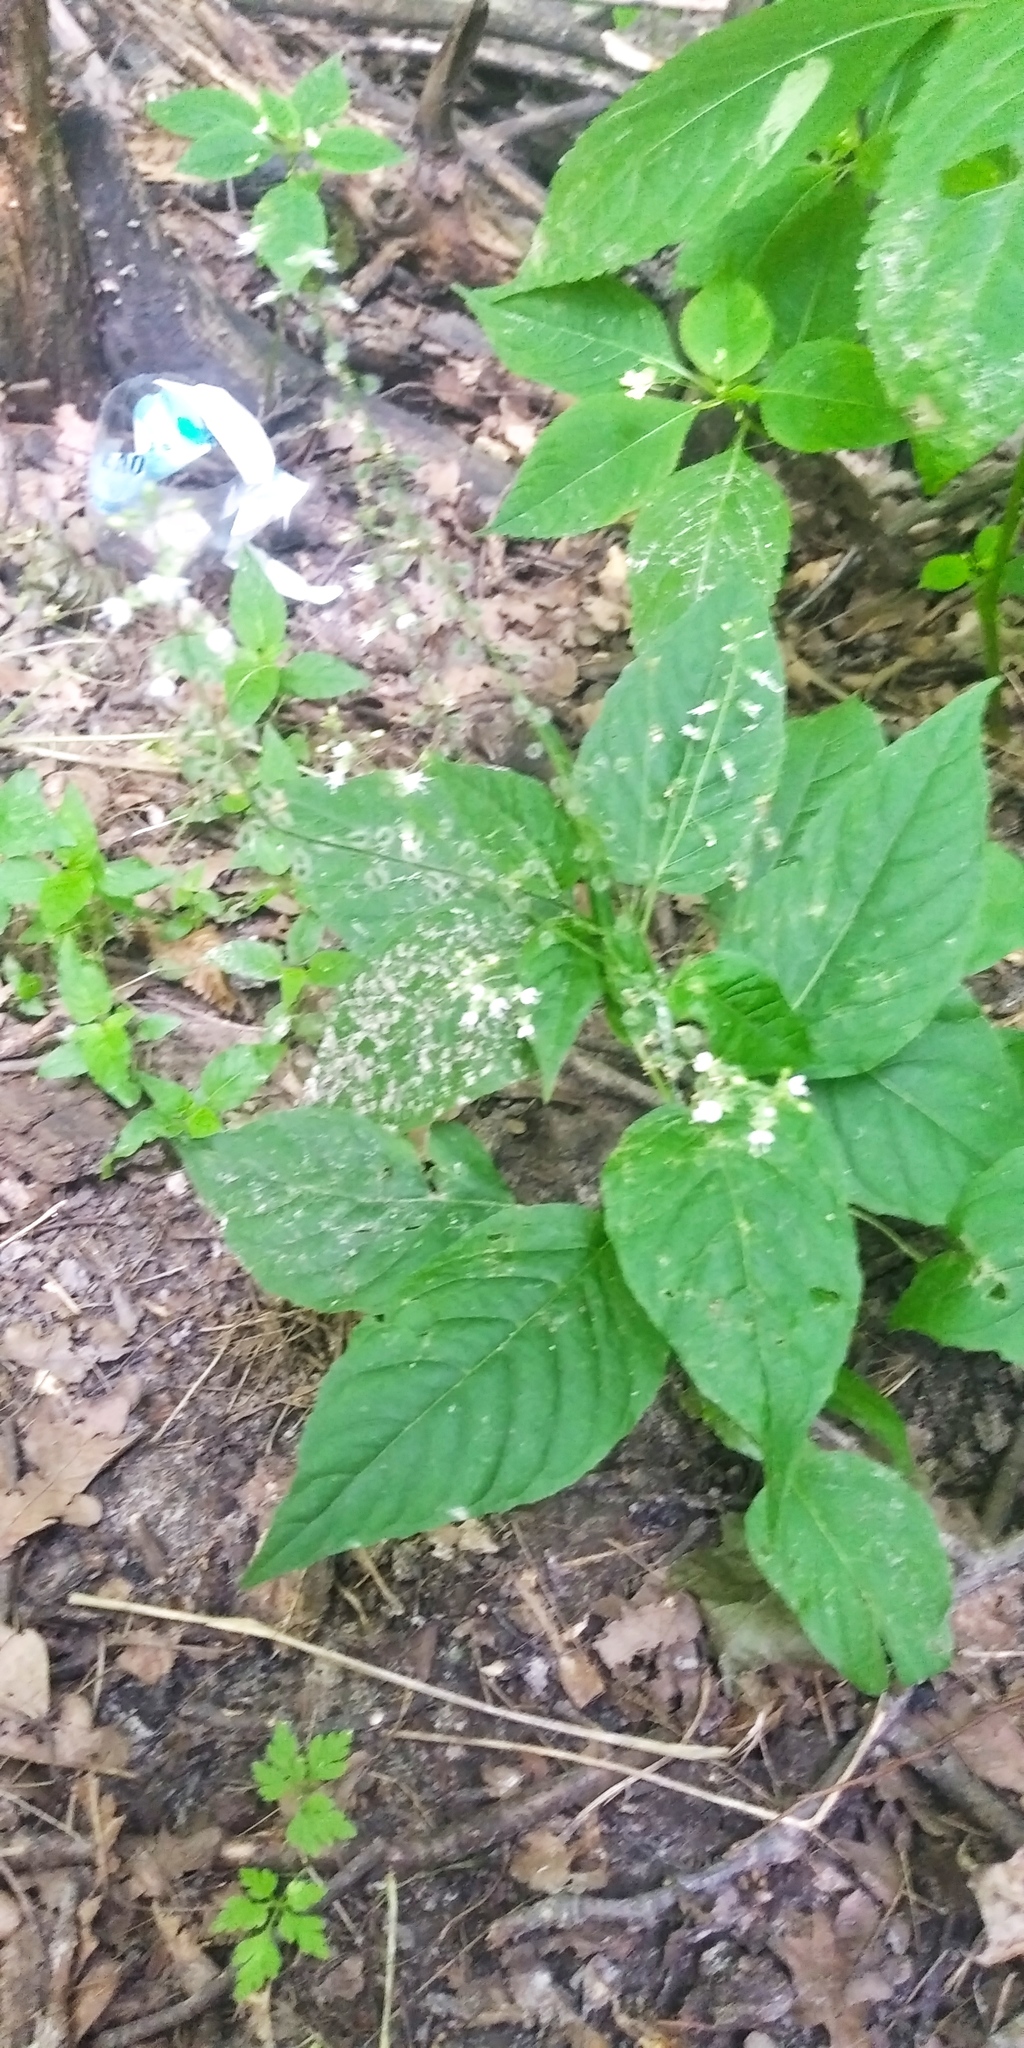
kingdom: Plantae
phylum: Tracheophyta
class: Magnoliopsida
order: Myrtales
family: Onagraceae
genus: Circaea
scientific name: Circaea lutetiana
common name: Enchanter's-nightshade
